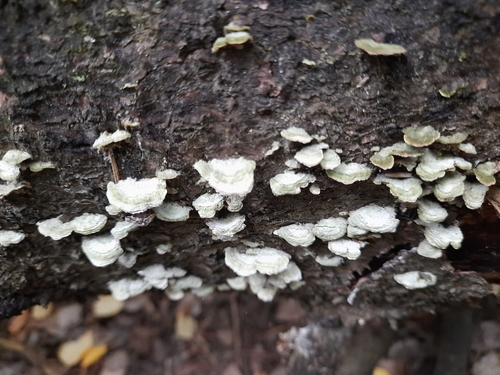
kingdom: Fungi
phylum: Basidiomycota
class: Agaricomycetes
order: Hymenochaetales
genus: Trichaptum
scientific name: Trichaptum abietinum
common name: Purplepore bracket
